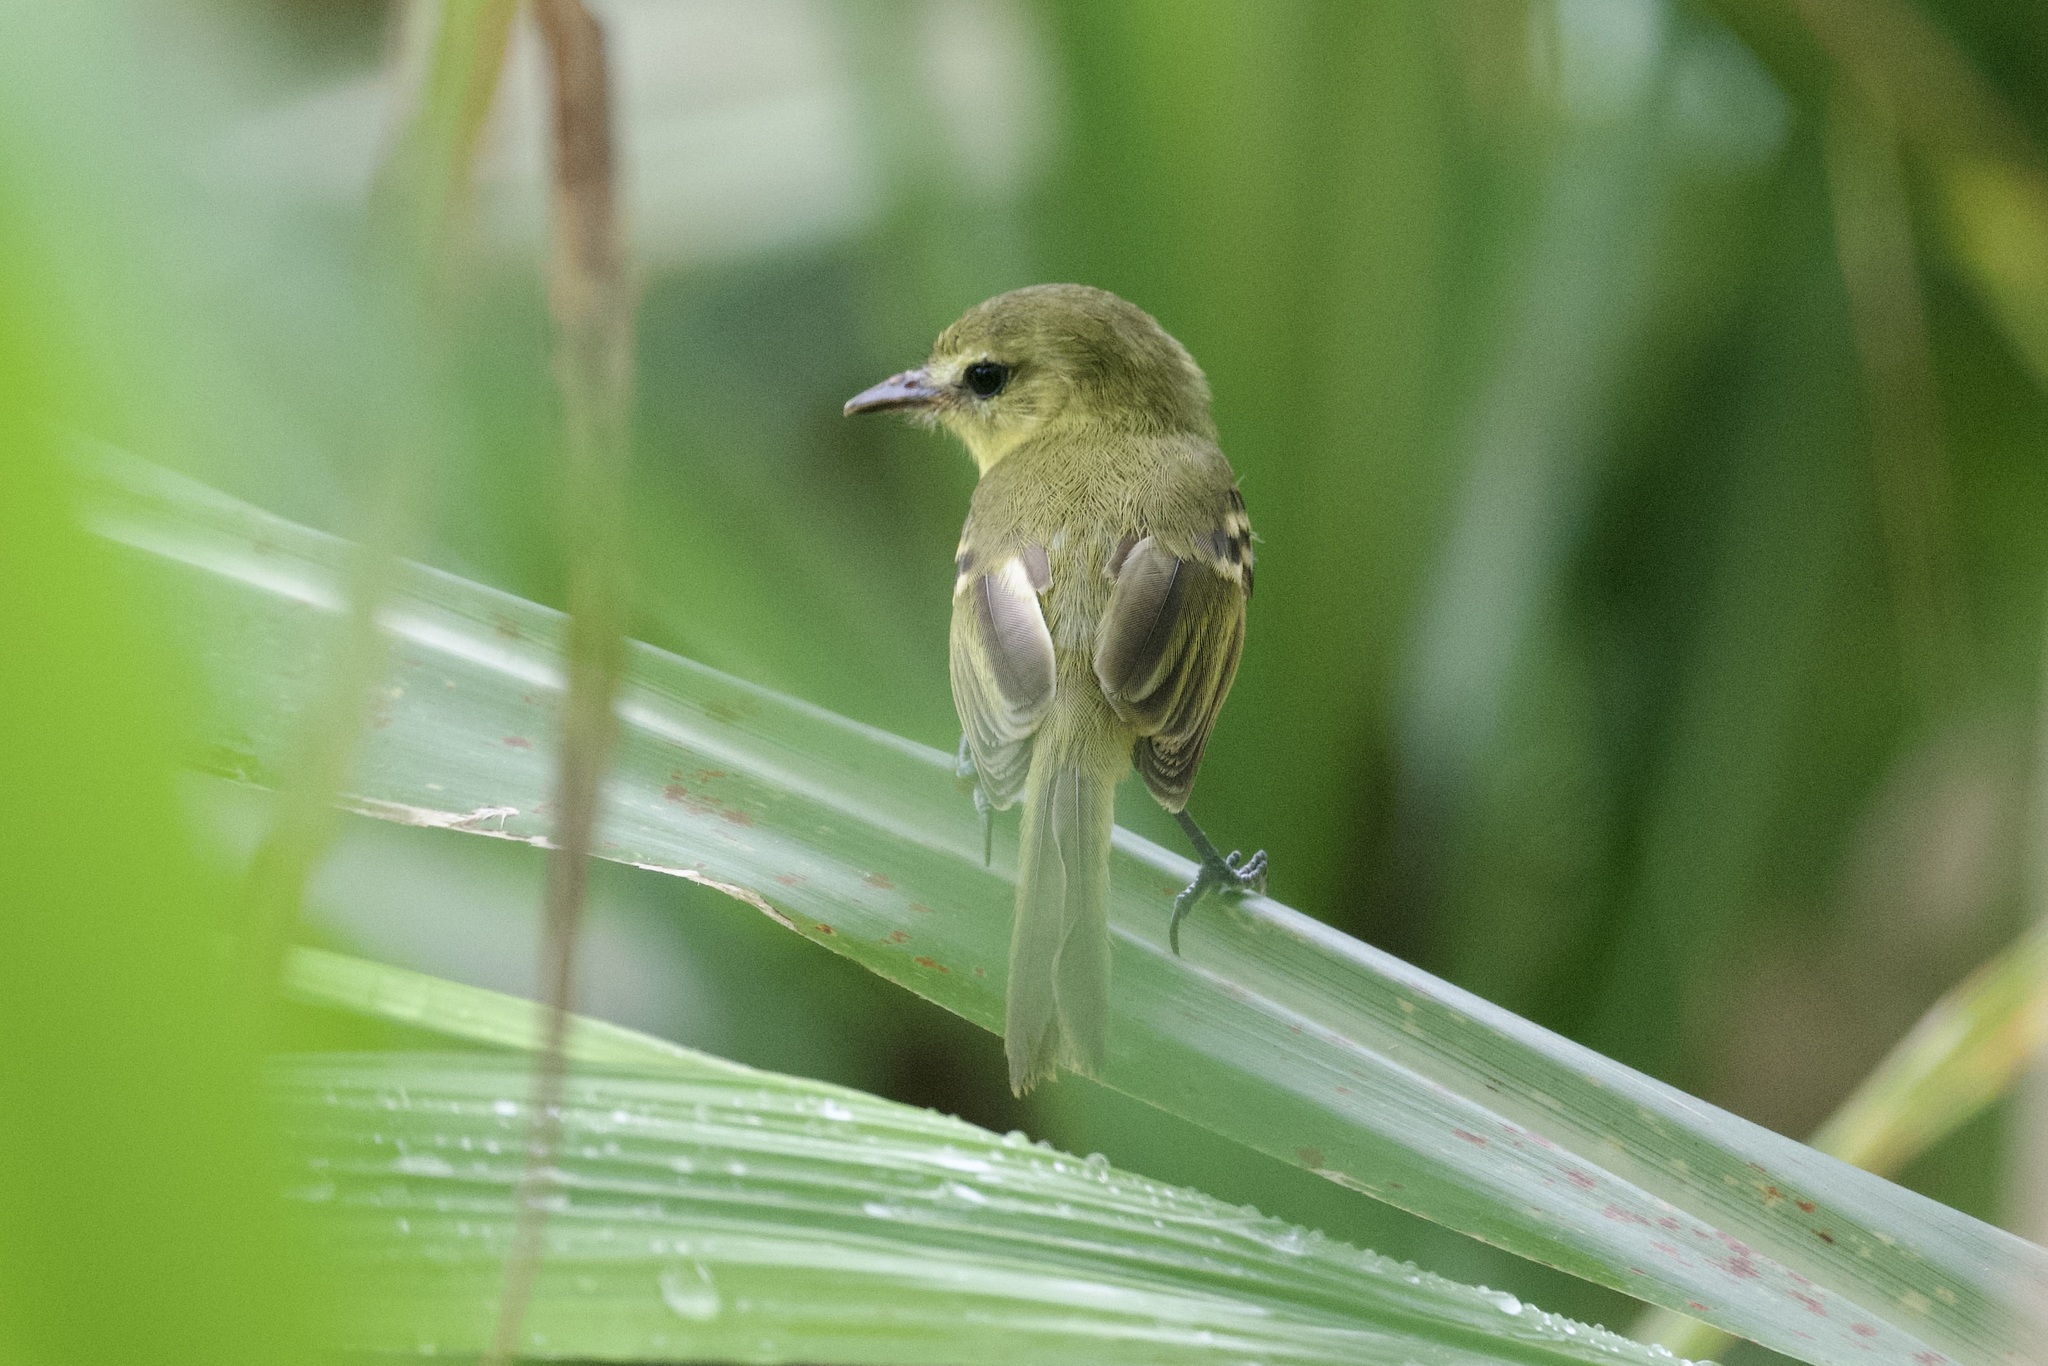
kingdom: Animalia
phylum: Chordata
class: Aves
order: Passeriformes
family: Tyrannidae
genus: Capsiempis
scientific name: Capsiempis flaveola
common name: Yellow tyrannulet
